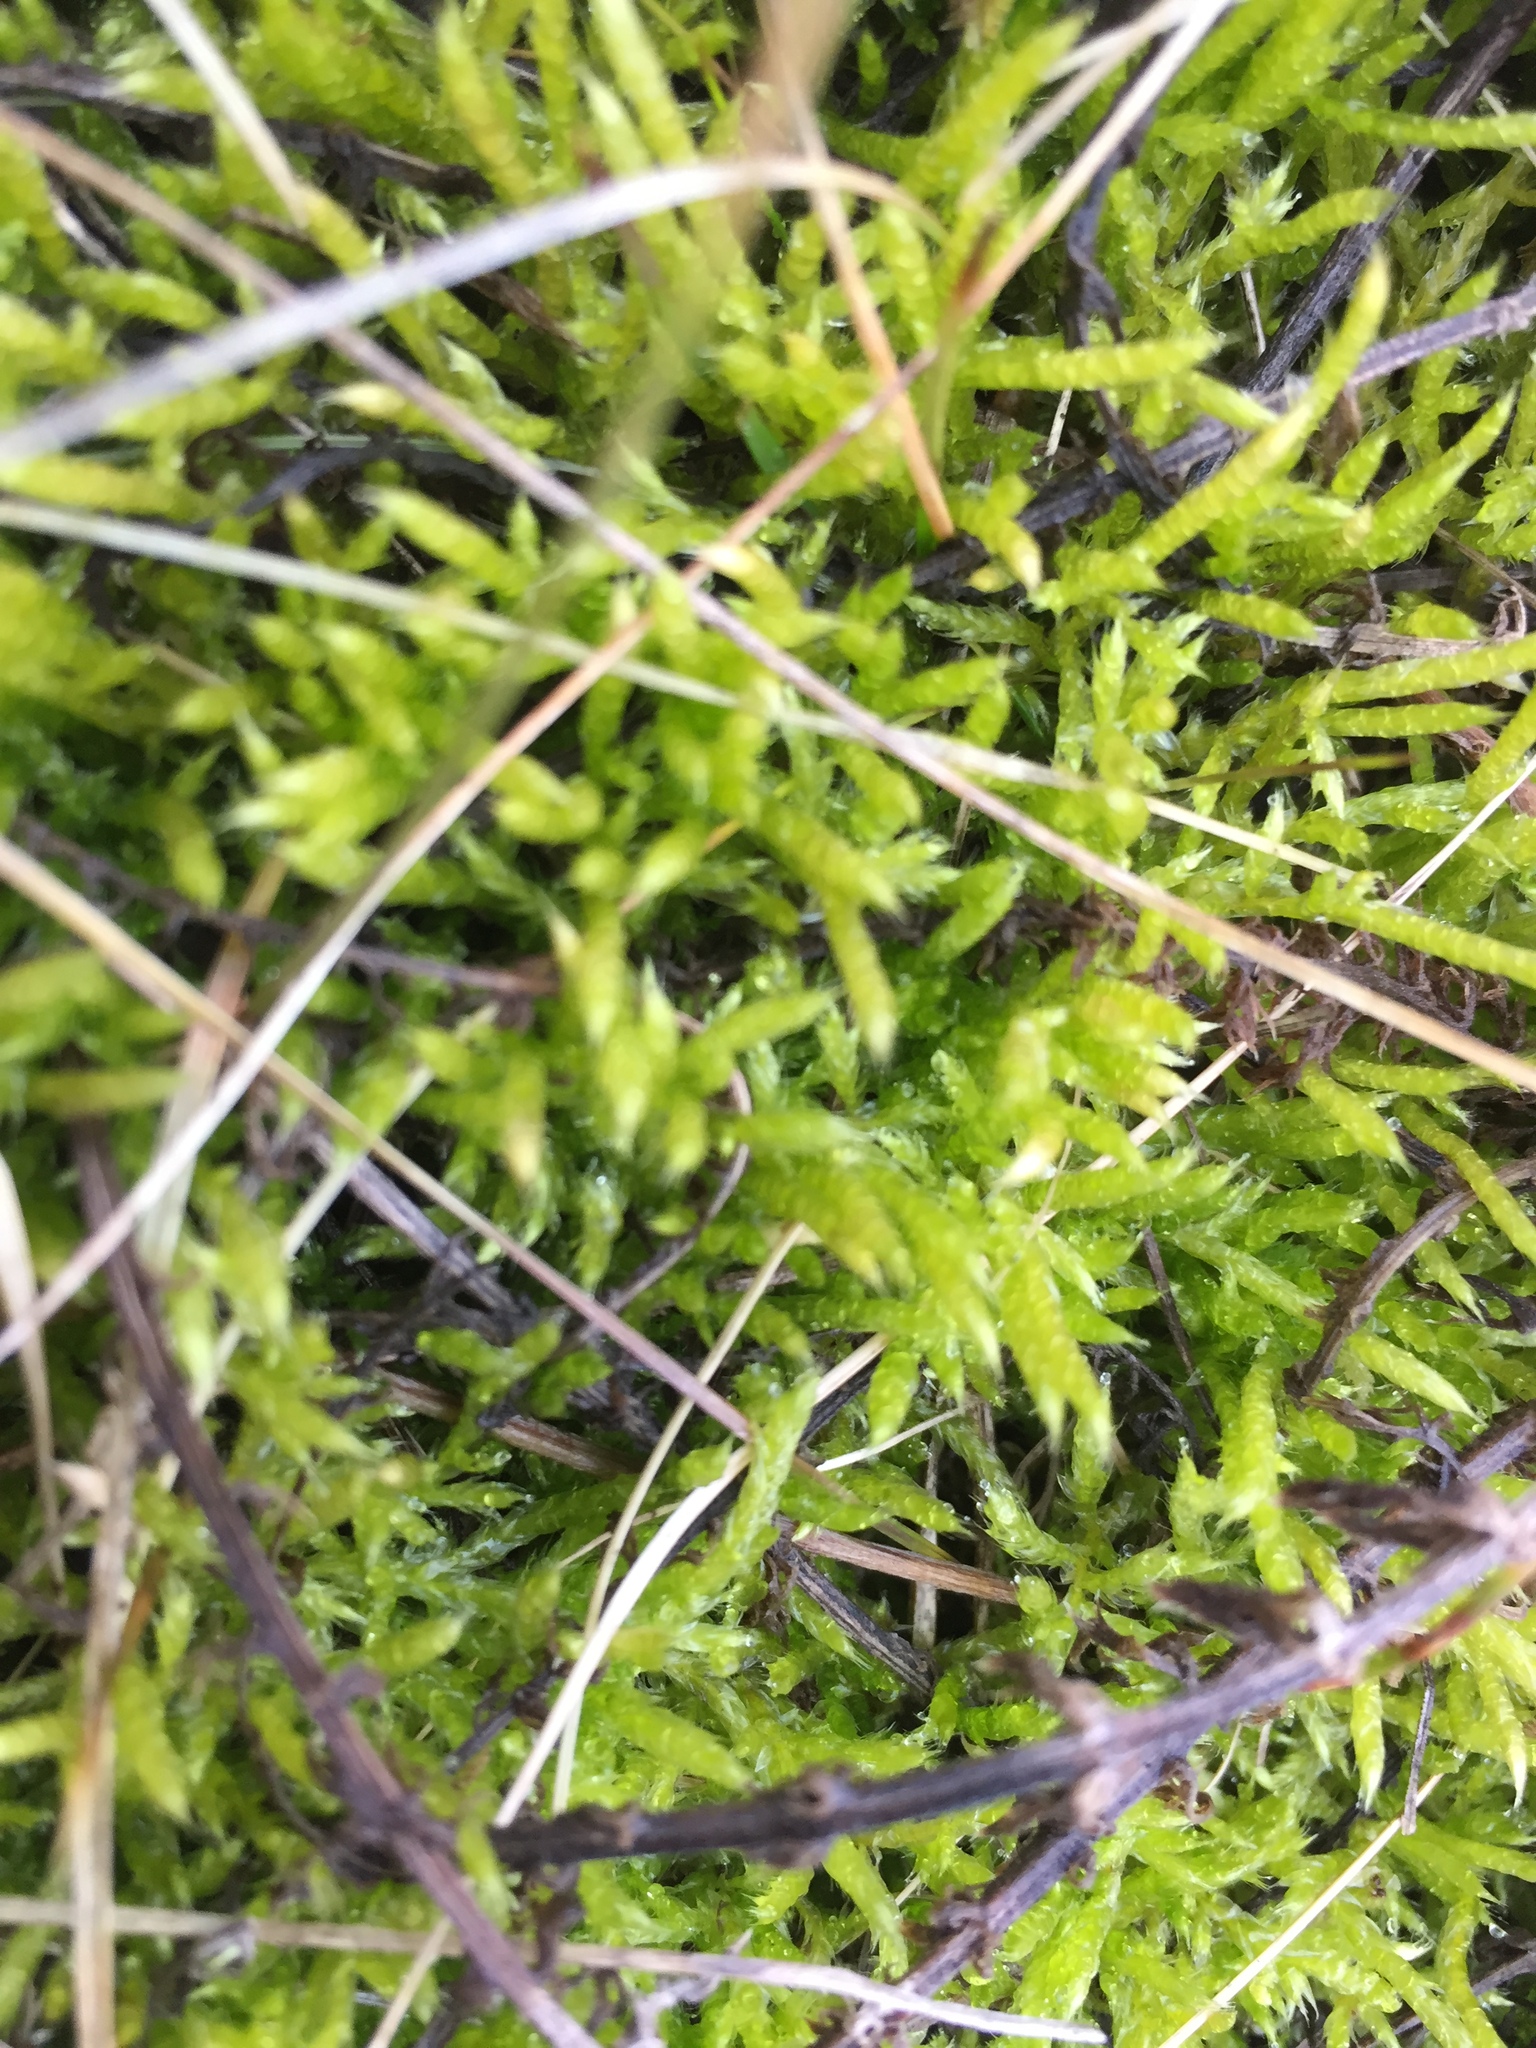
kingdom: Plantae
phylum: Bryophyta
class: Bryopsida
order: Hypnales
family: Hypnaceae
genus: Hypnum
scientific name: Hypnum cupressiforme
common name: Cypress-leaved plait-moss
